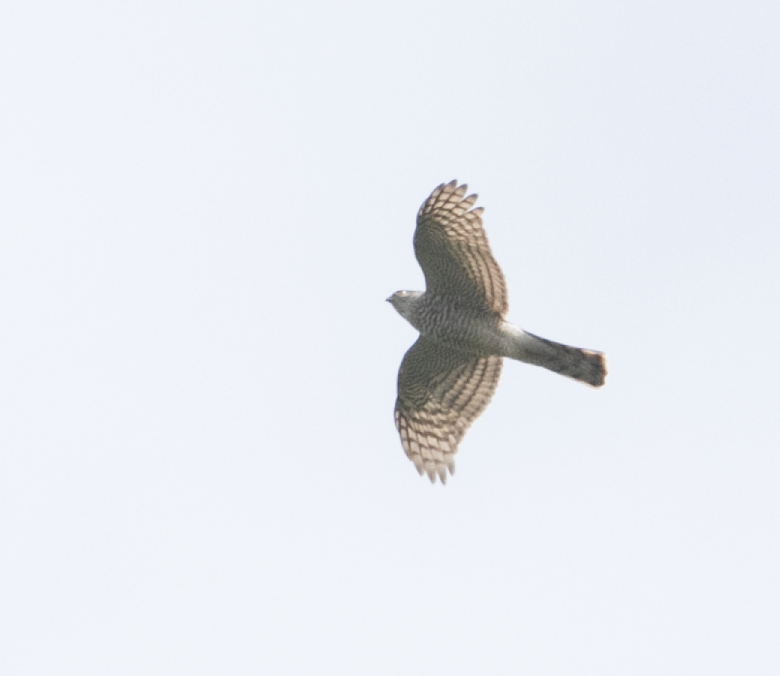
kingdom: Animalia
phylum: Chordata
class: Aves
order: Accipitriformes
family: Accipitridae
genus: Accipiter
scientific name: Accipiter nisus
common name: Eurasian sparrowhawk
